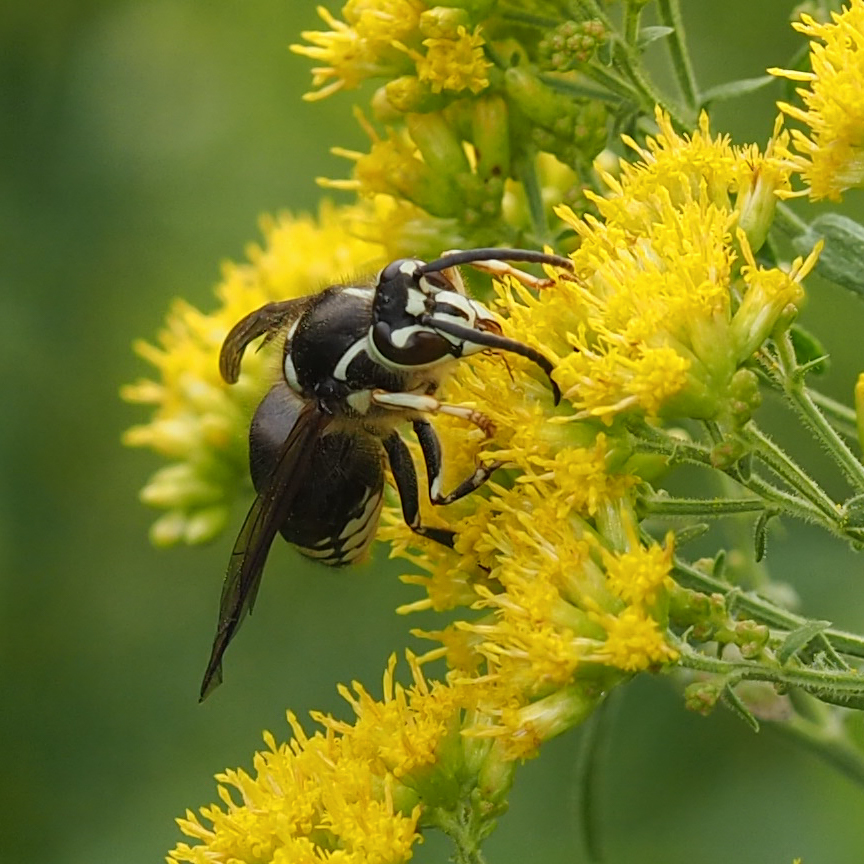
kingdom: Animalia
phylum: Arthropoda
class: Insecta
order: Hymenoptera
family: Vespidae
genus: Dolichovespula
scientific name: Dolichovespula maculata
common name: Bald-faced hornet
